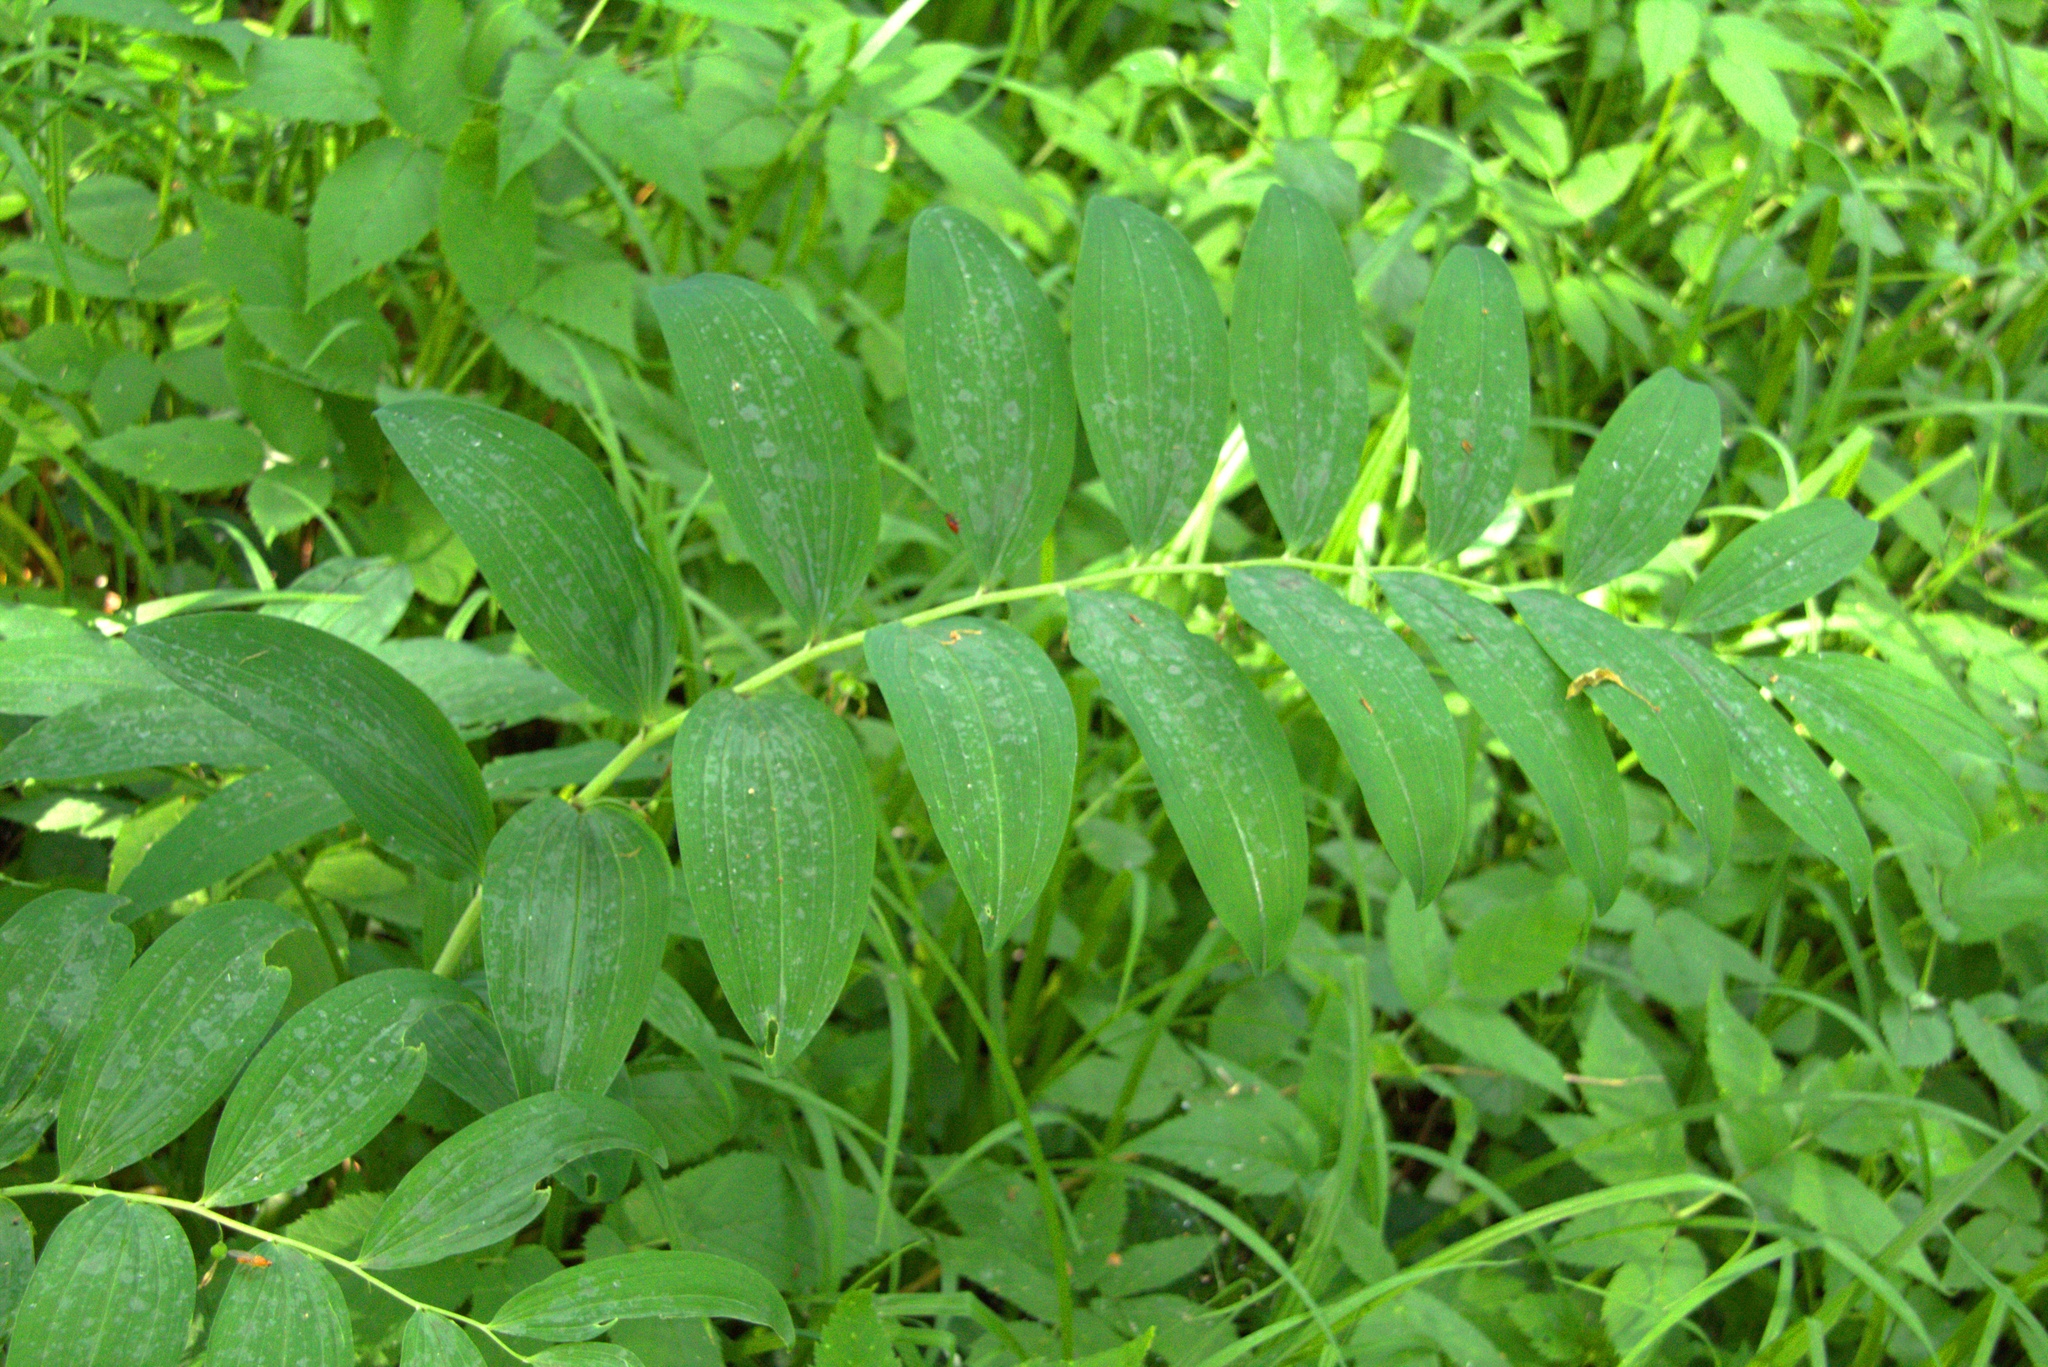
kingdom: Plantae
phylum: Tracheophyta
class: Liliopsida
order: Asparagales
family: Asparagaceae
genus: Polygonatum
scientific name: Polygonatum multiflorum
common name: Solomon's-seal
